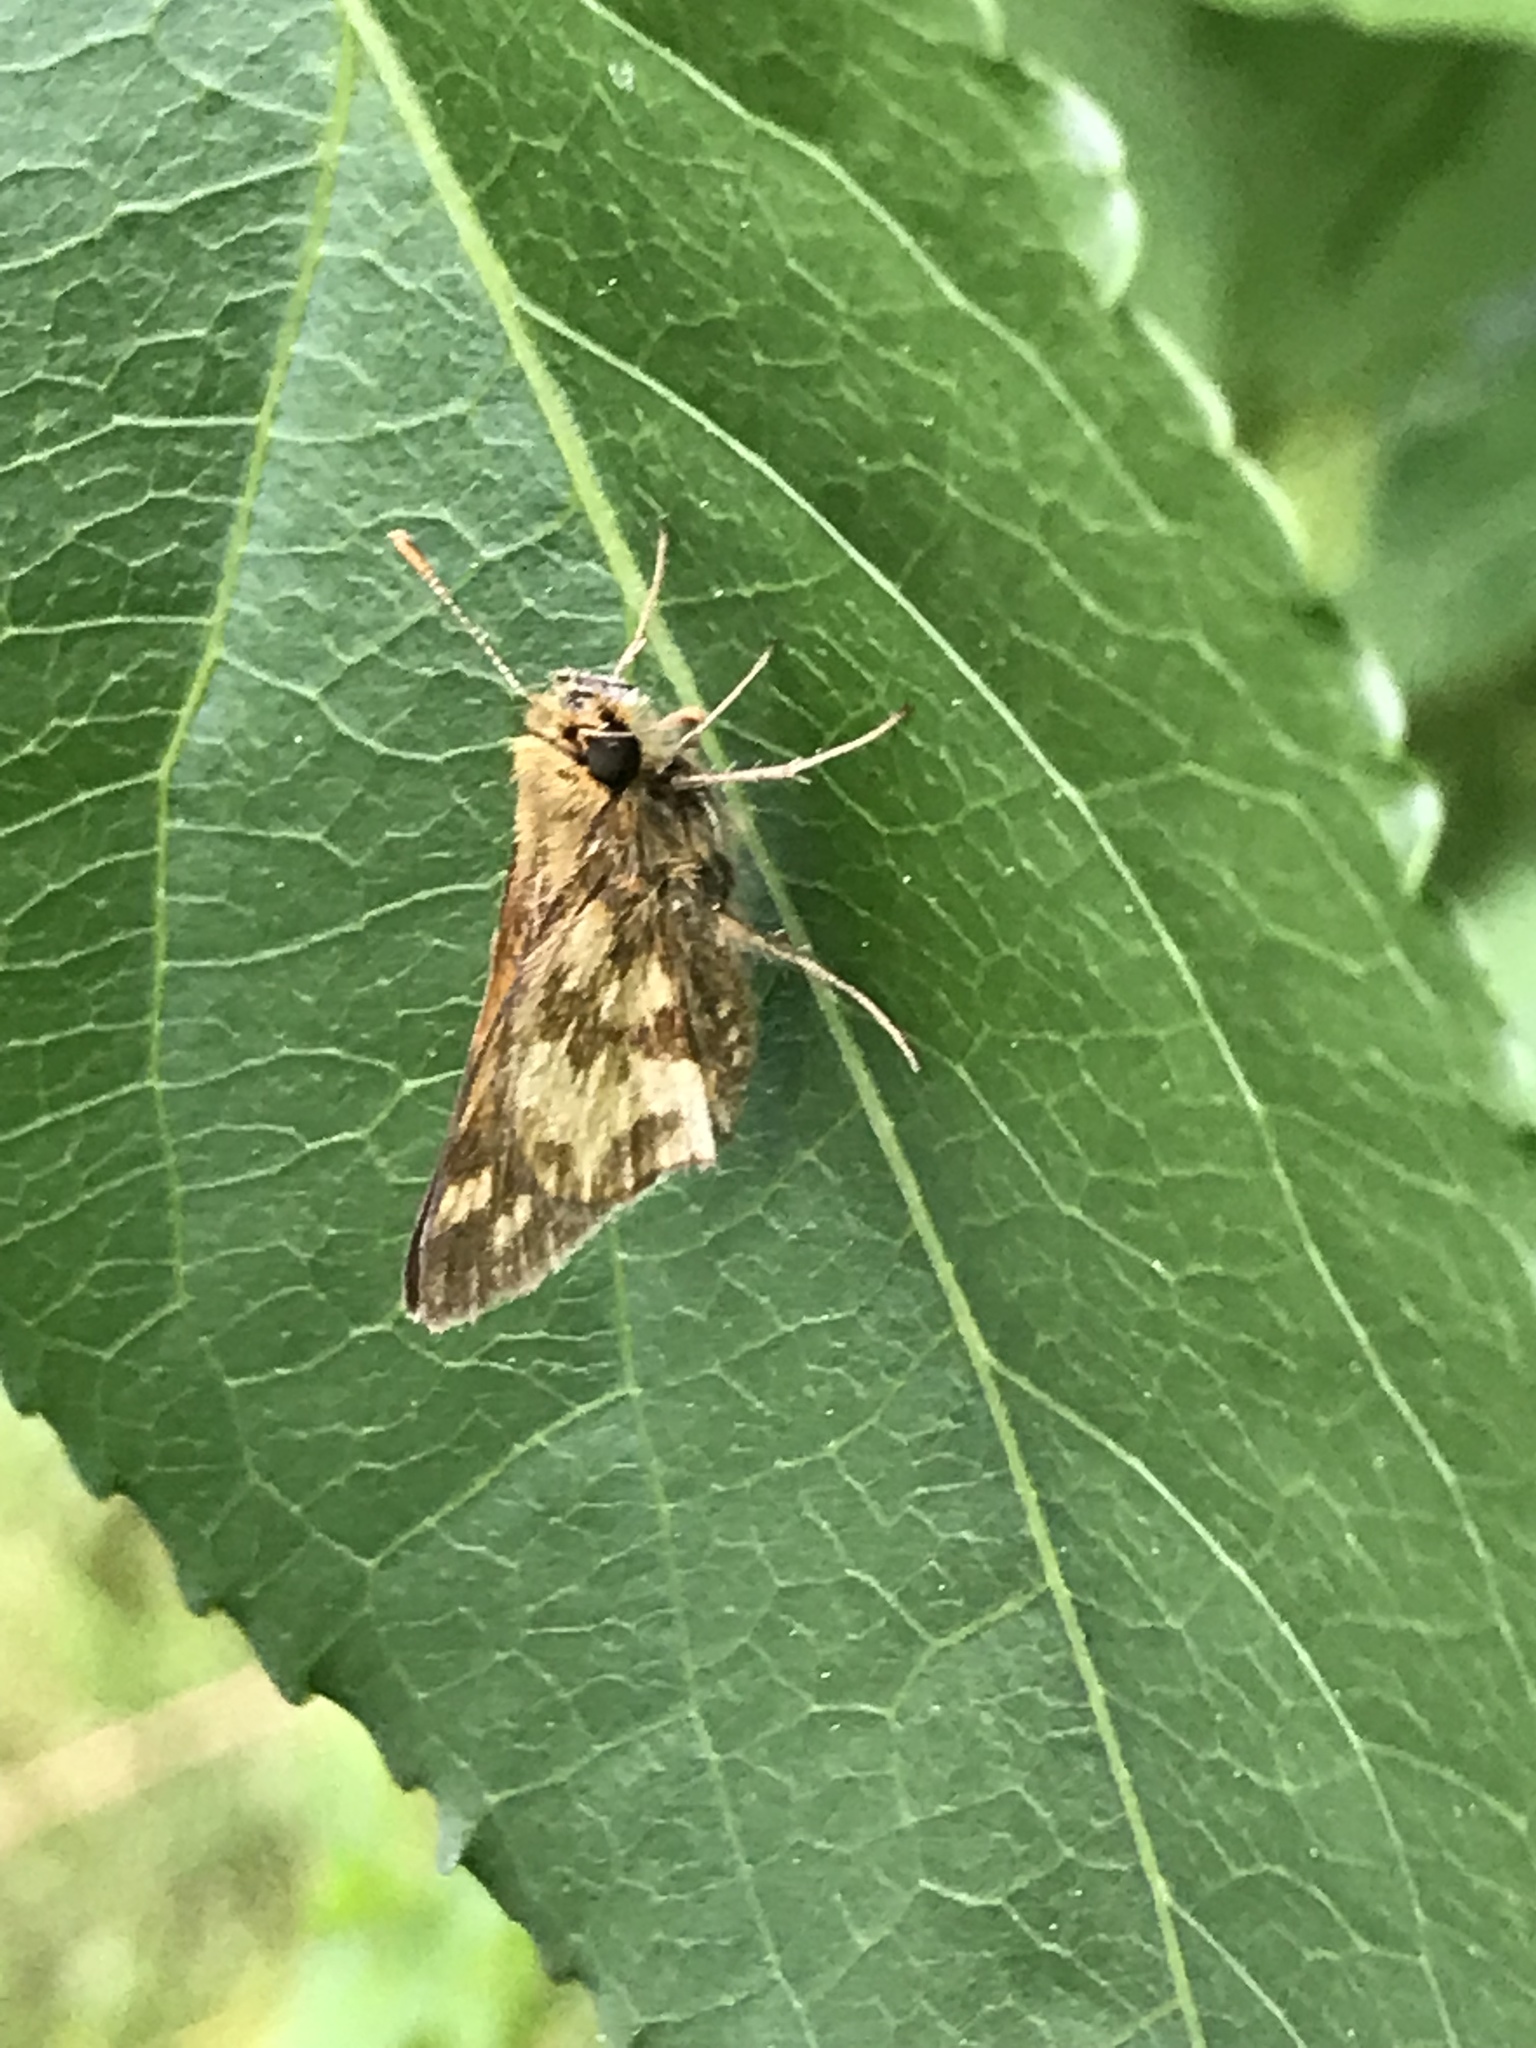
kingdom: Animalia
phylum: Arthropoda
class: Insecta
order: Lepidoptera
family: Hesperiidae
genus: Polites
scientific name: Polites coras
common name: Peck's skipper
